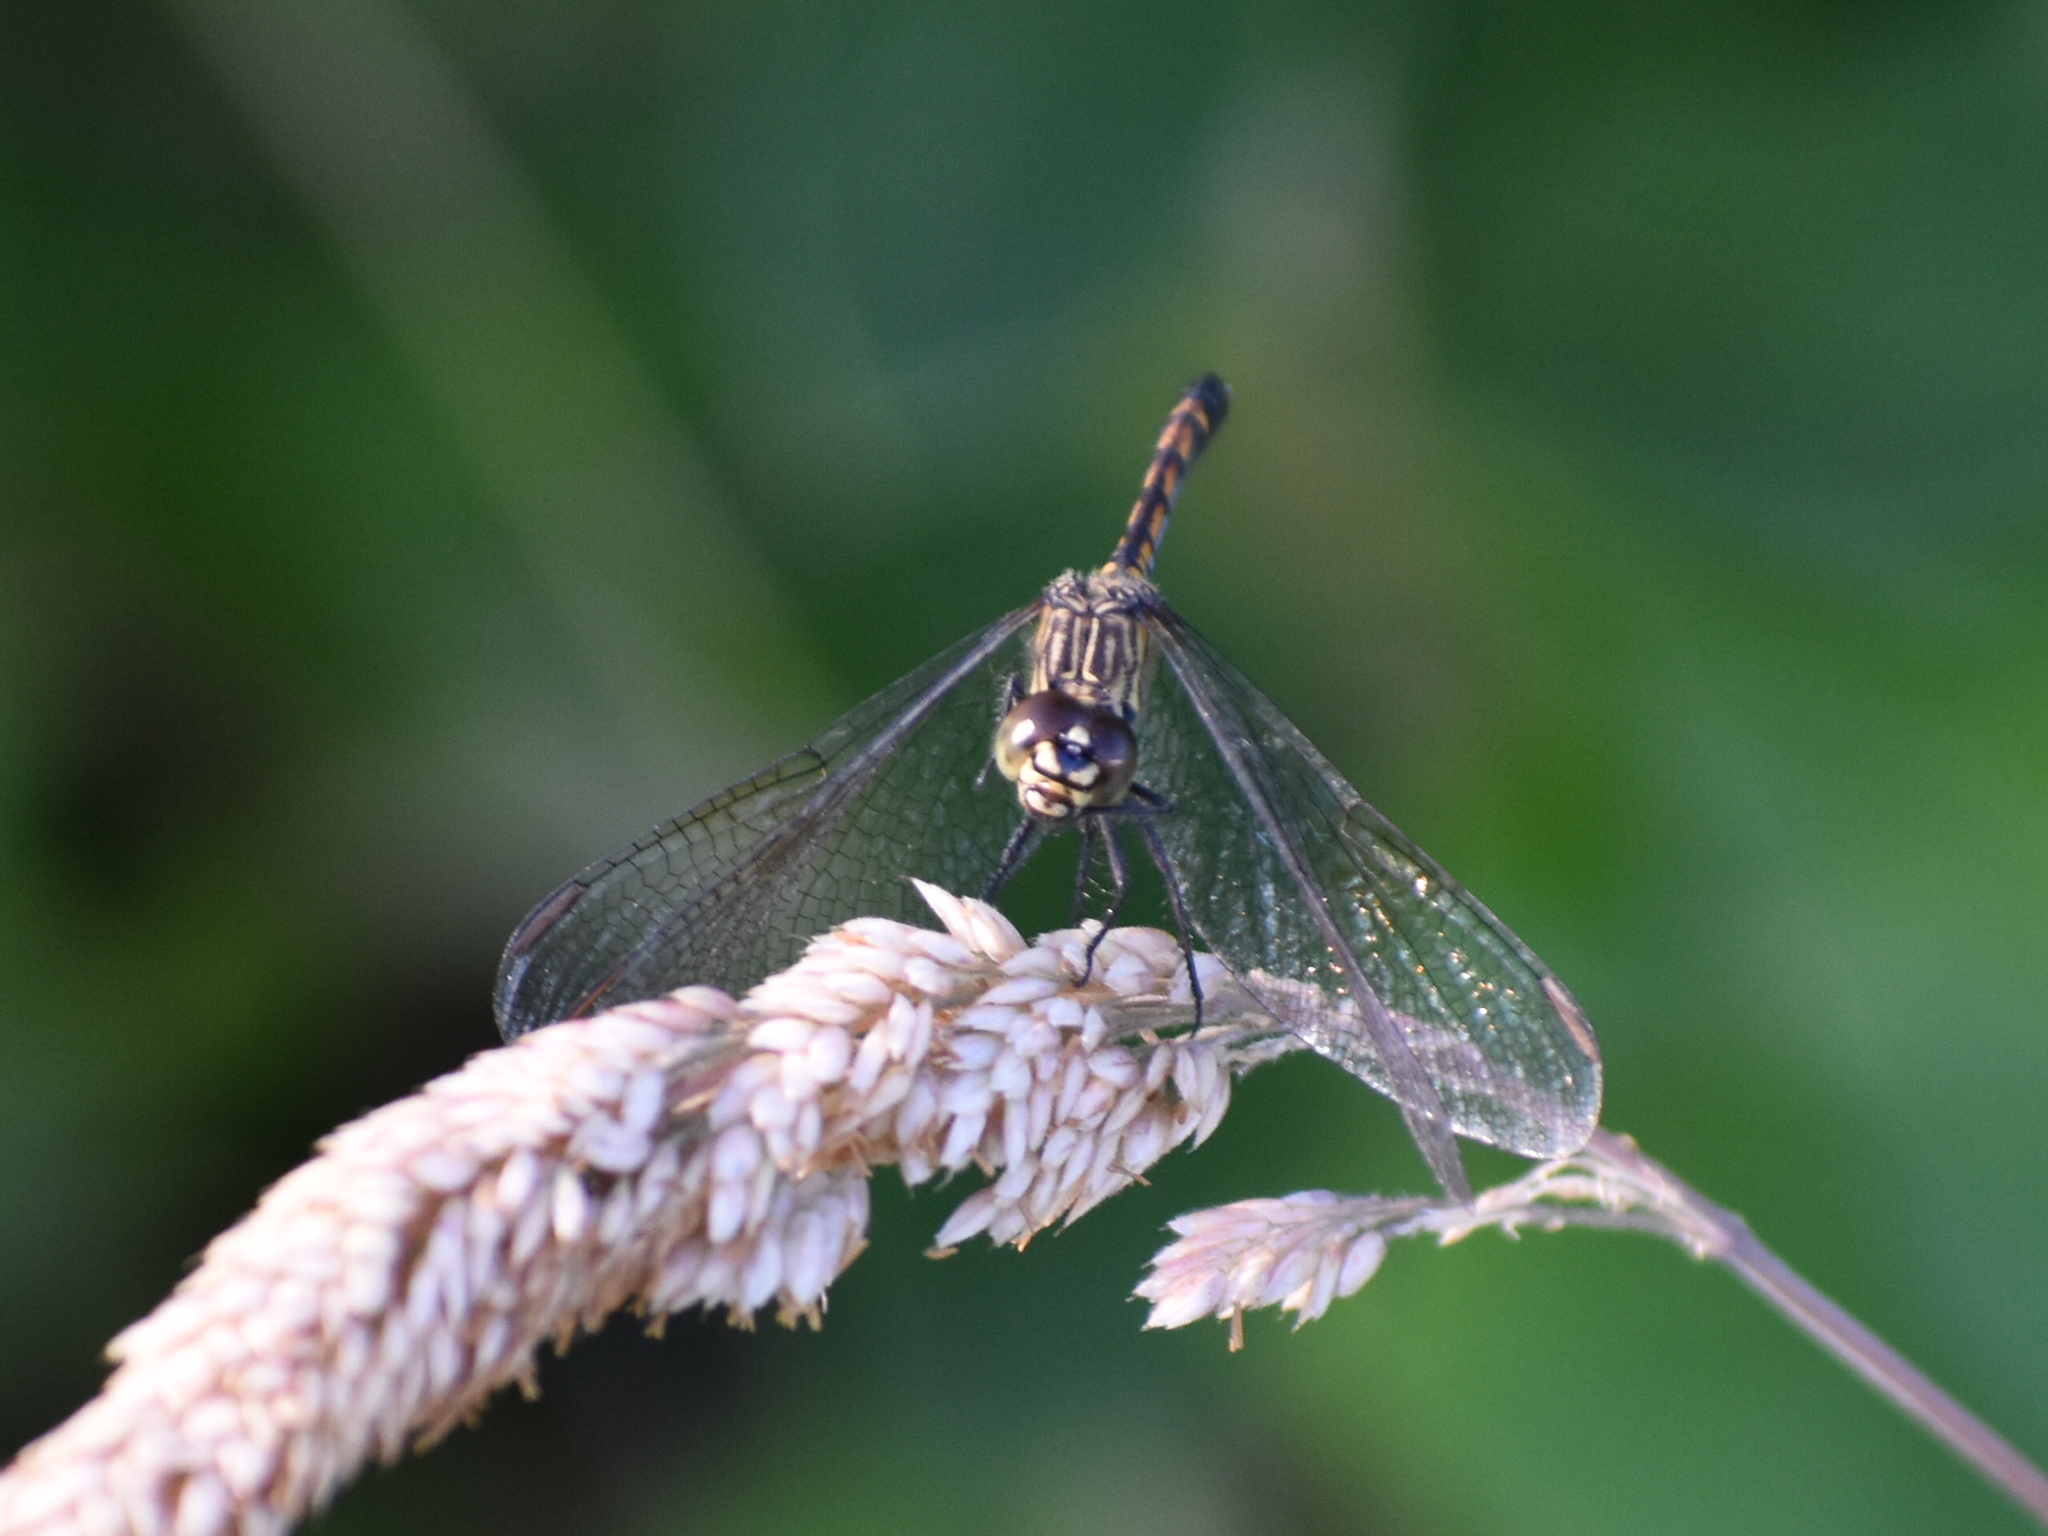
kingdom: Animalia
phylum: Arthropoda
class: Insecta
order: Odonata
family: Libellulidae
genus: Erythrodiplax
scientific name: Erythrodiplax berenice
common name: Seaside dragonlet
